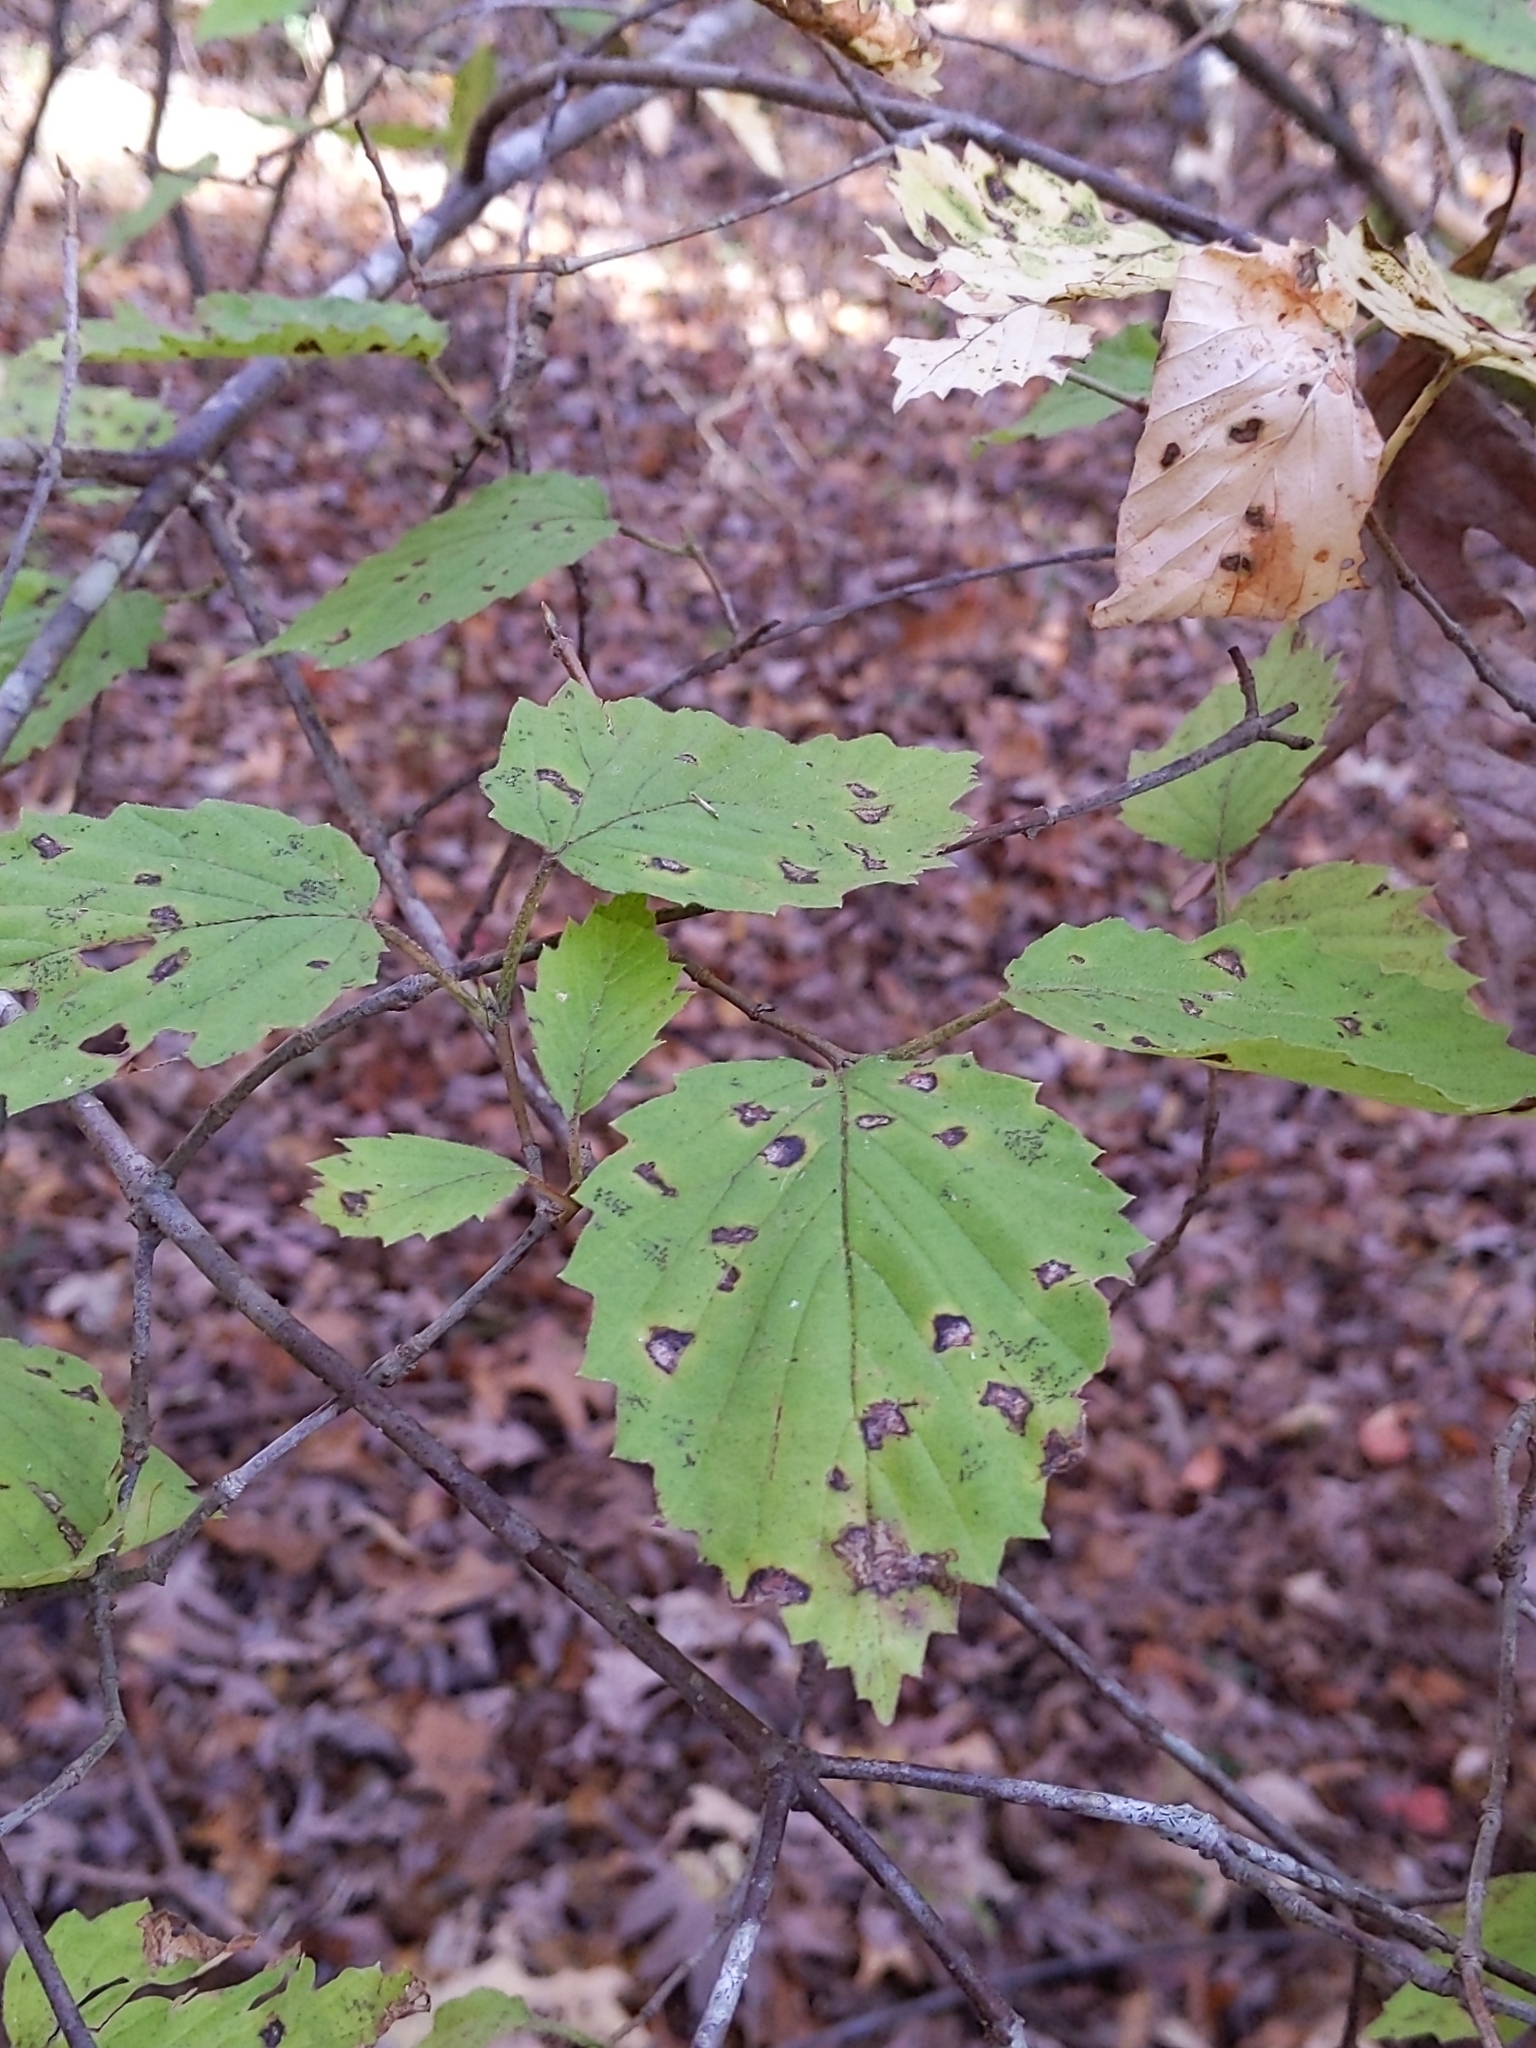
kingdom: Plantae
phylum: Tracheophyta
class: Magnoliopsida
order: Dipsacales
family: Viburnaceae
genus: Viburnum
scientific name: Viburnum dentatum
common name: Arrow-wood
